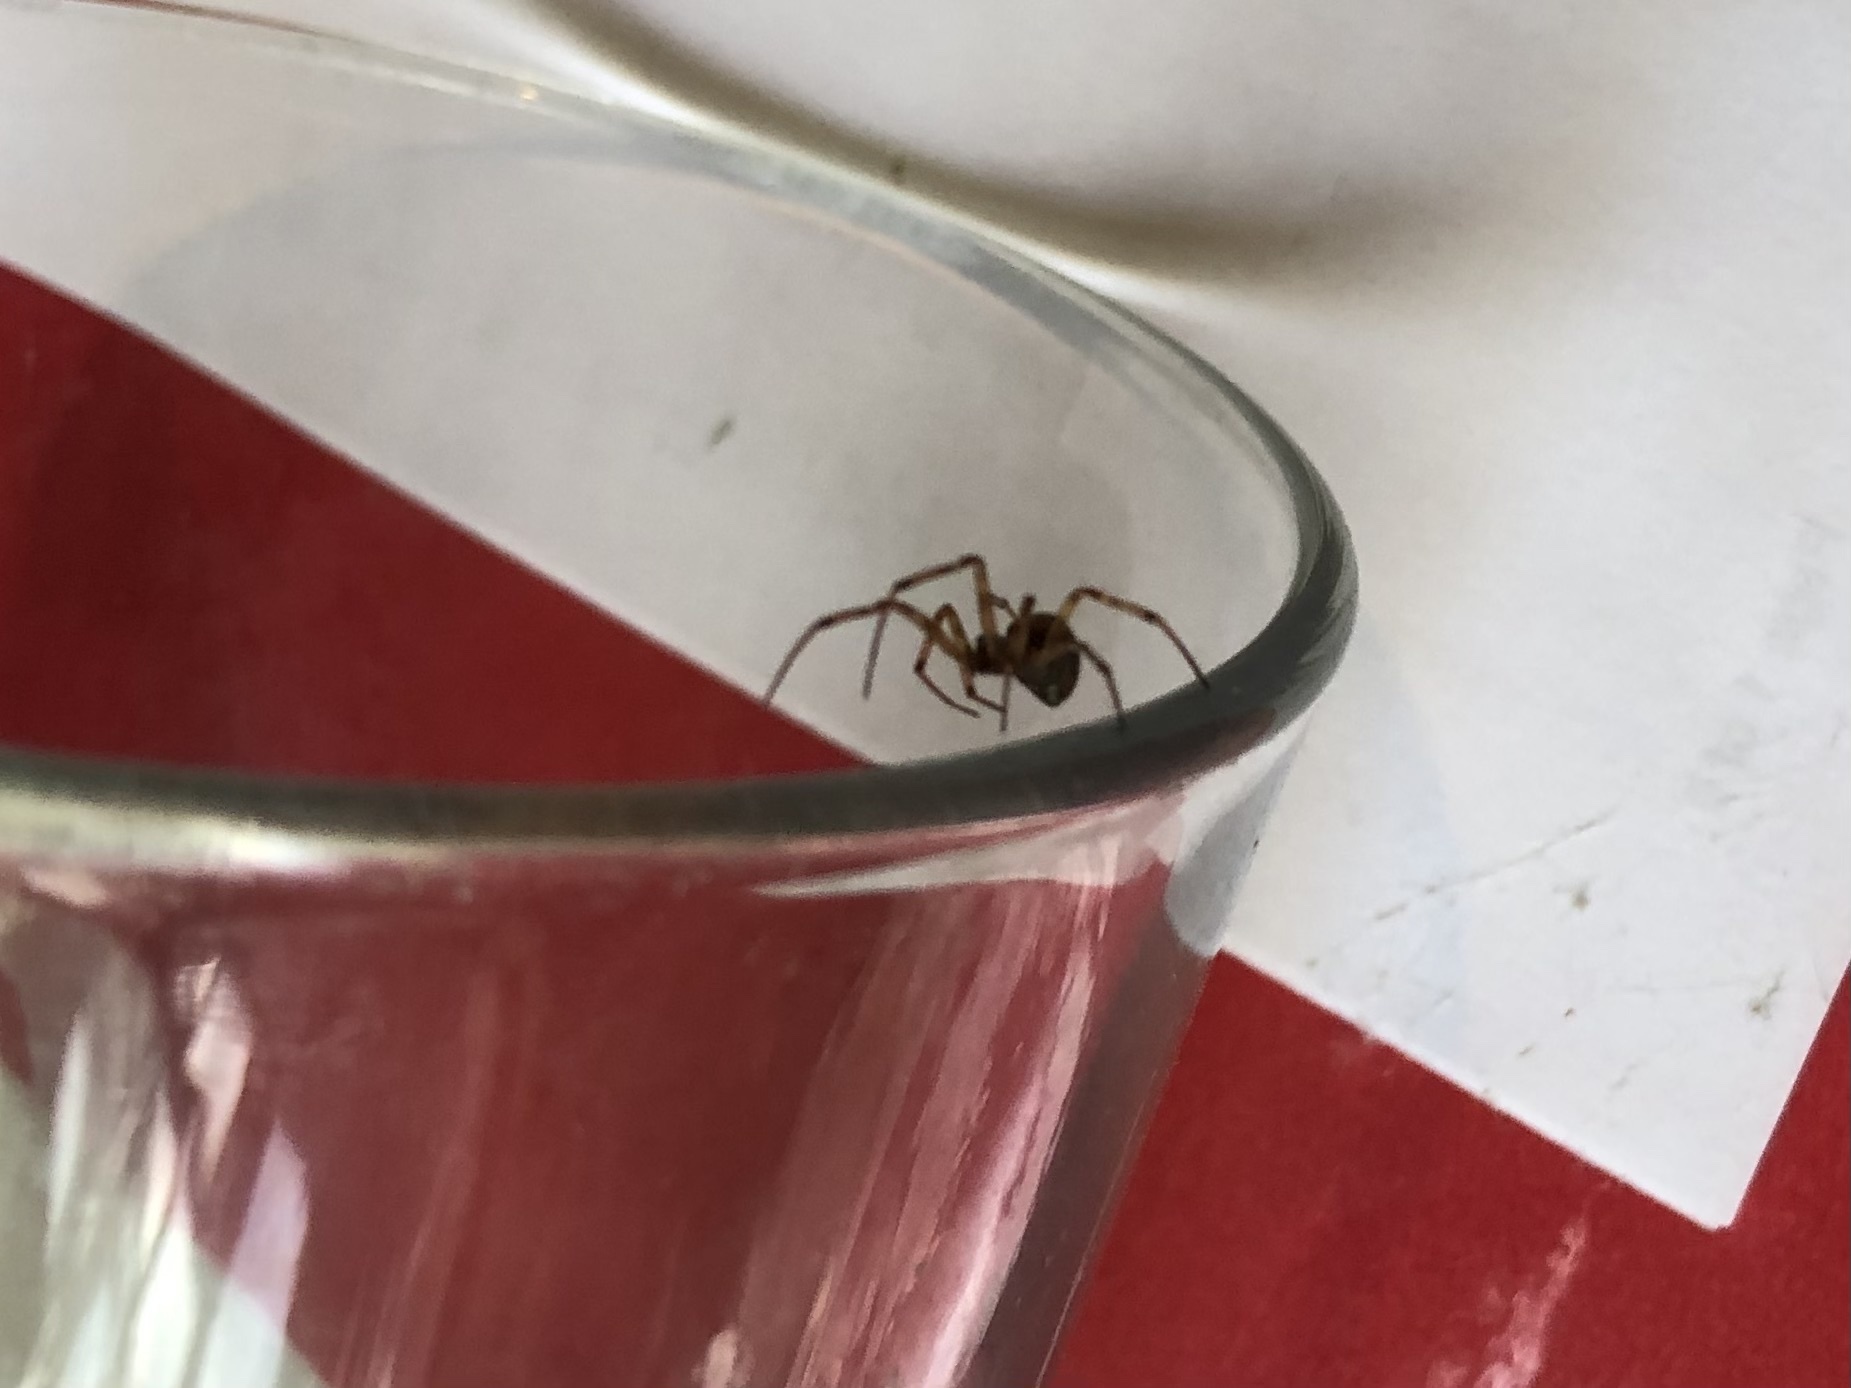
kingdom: Animalia
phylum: Arthropoda
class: Arachnida
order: Araneae
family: Theridiidae
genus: Steatoda
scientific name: Steatoda triangulosa
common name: Triangulate bud spider
